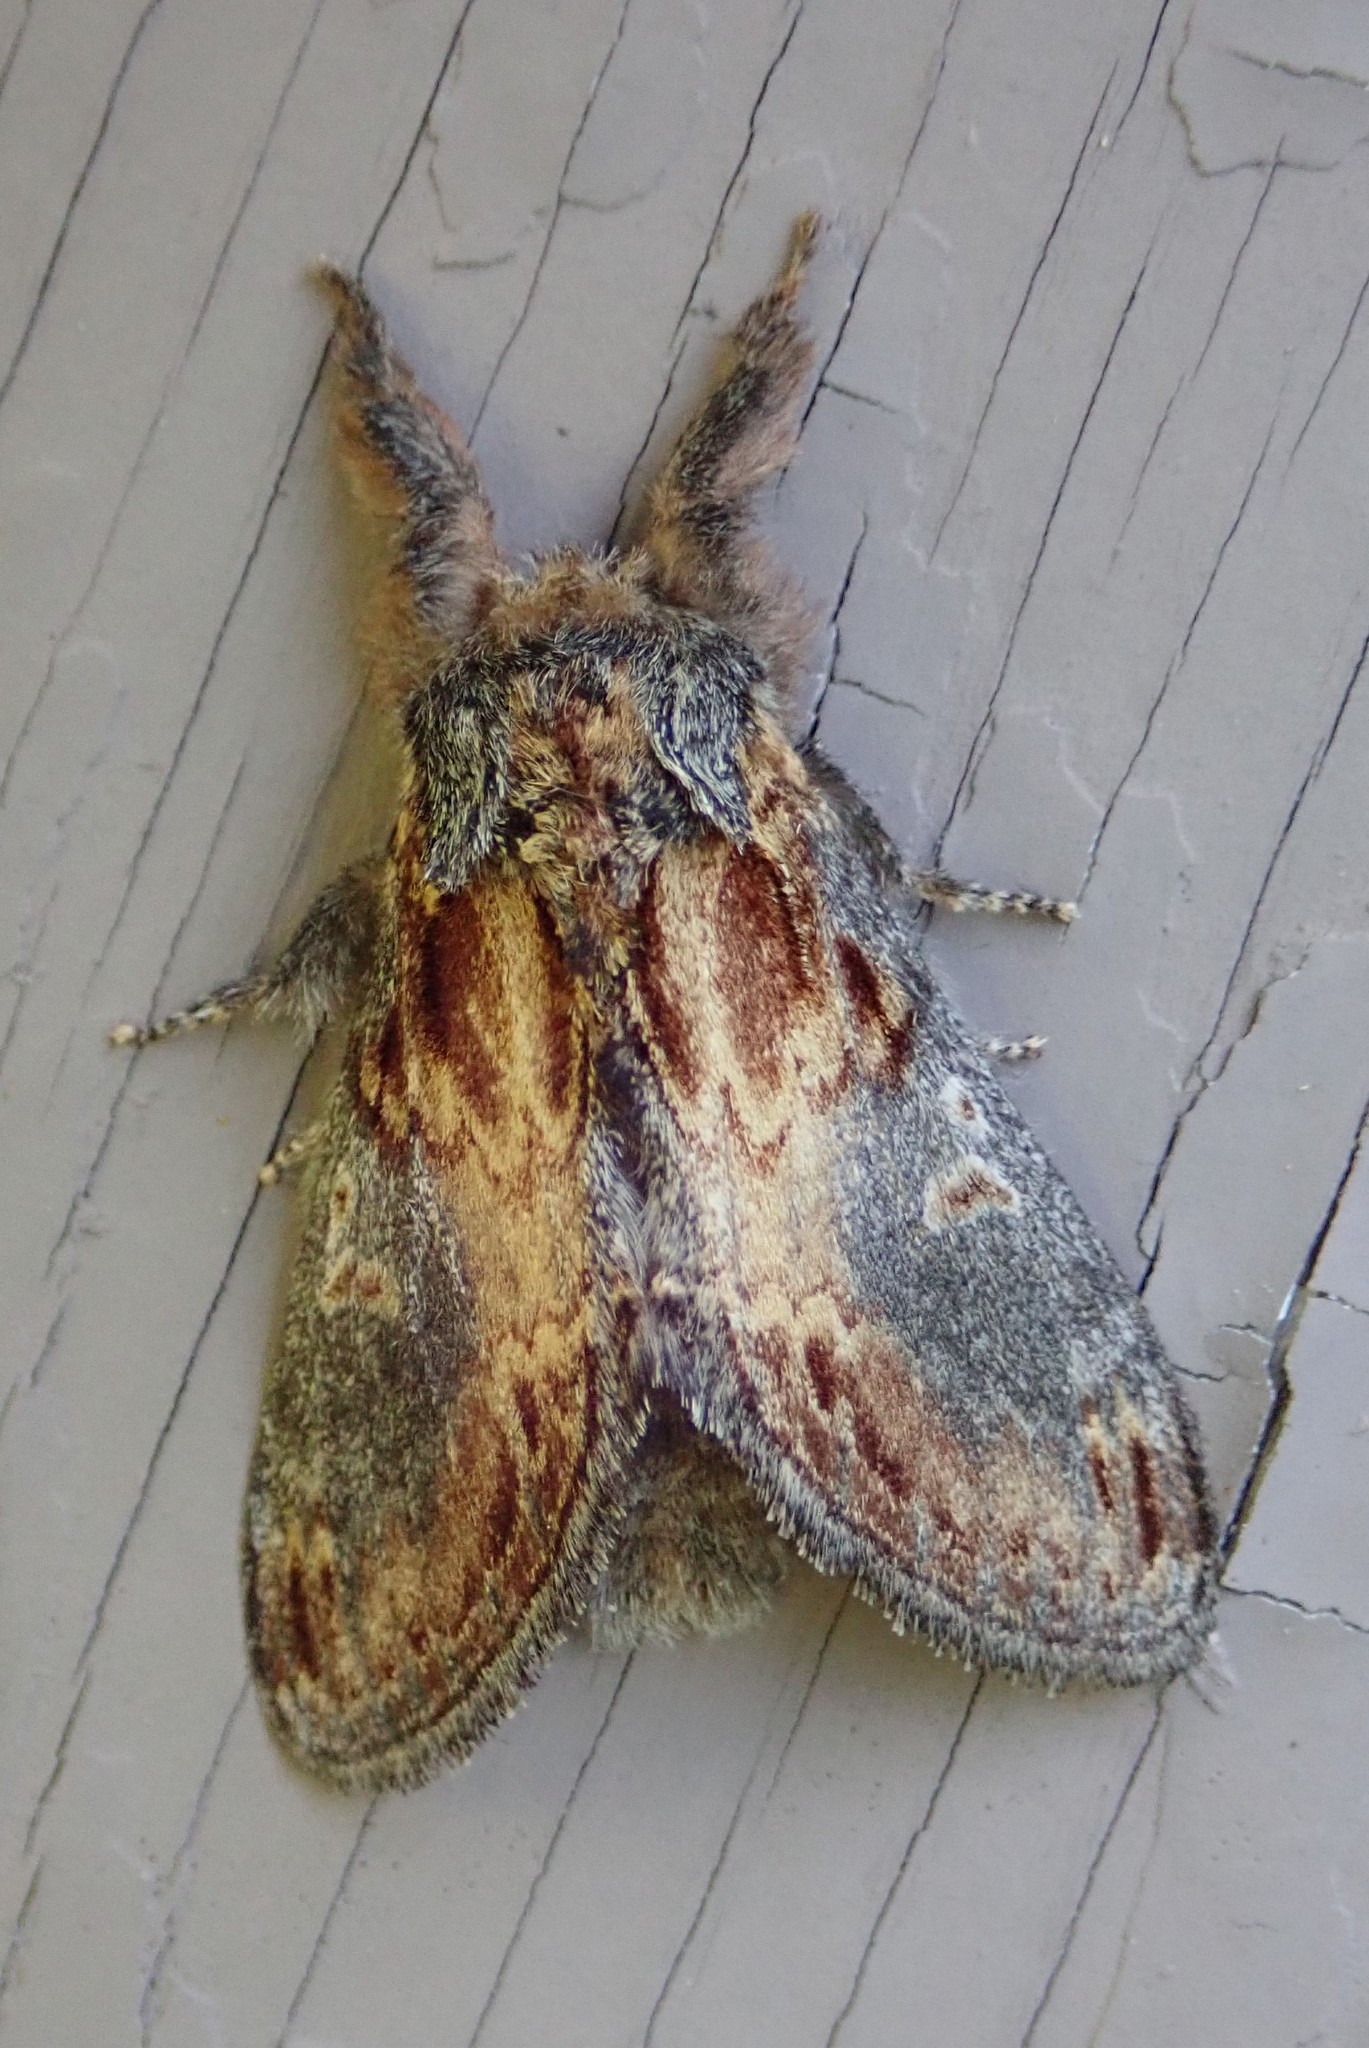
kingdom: Animalia
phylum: Arthropoda
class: Insecta
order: Lepidoptera
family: Notodontidae
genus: Notodonta
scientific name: Notodonta scitipennis
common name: Finned-willow prominent moth
